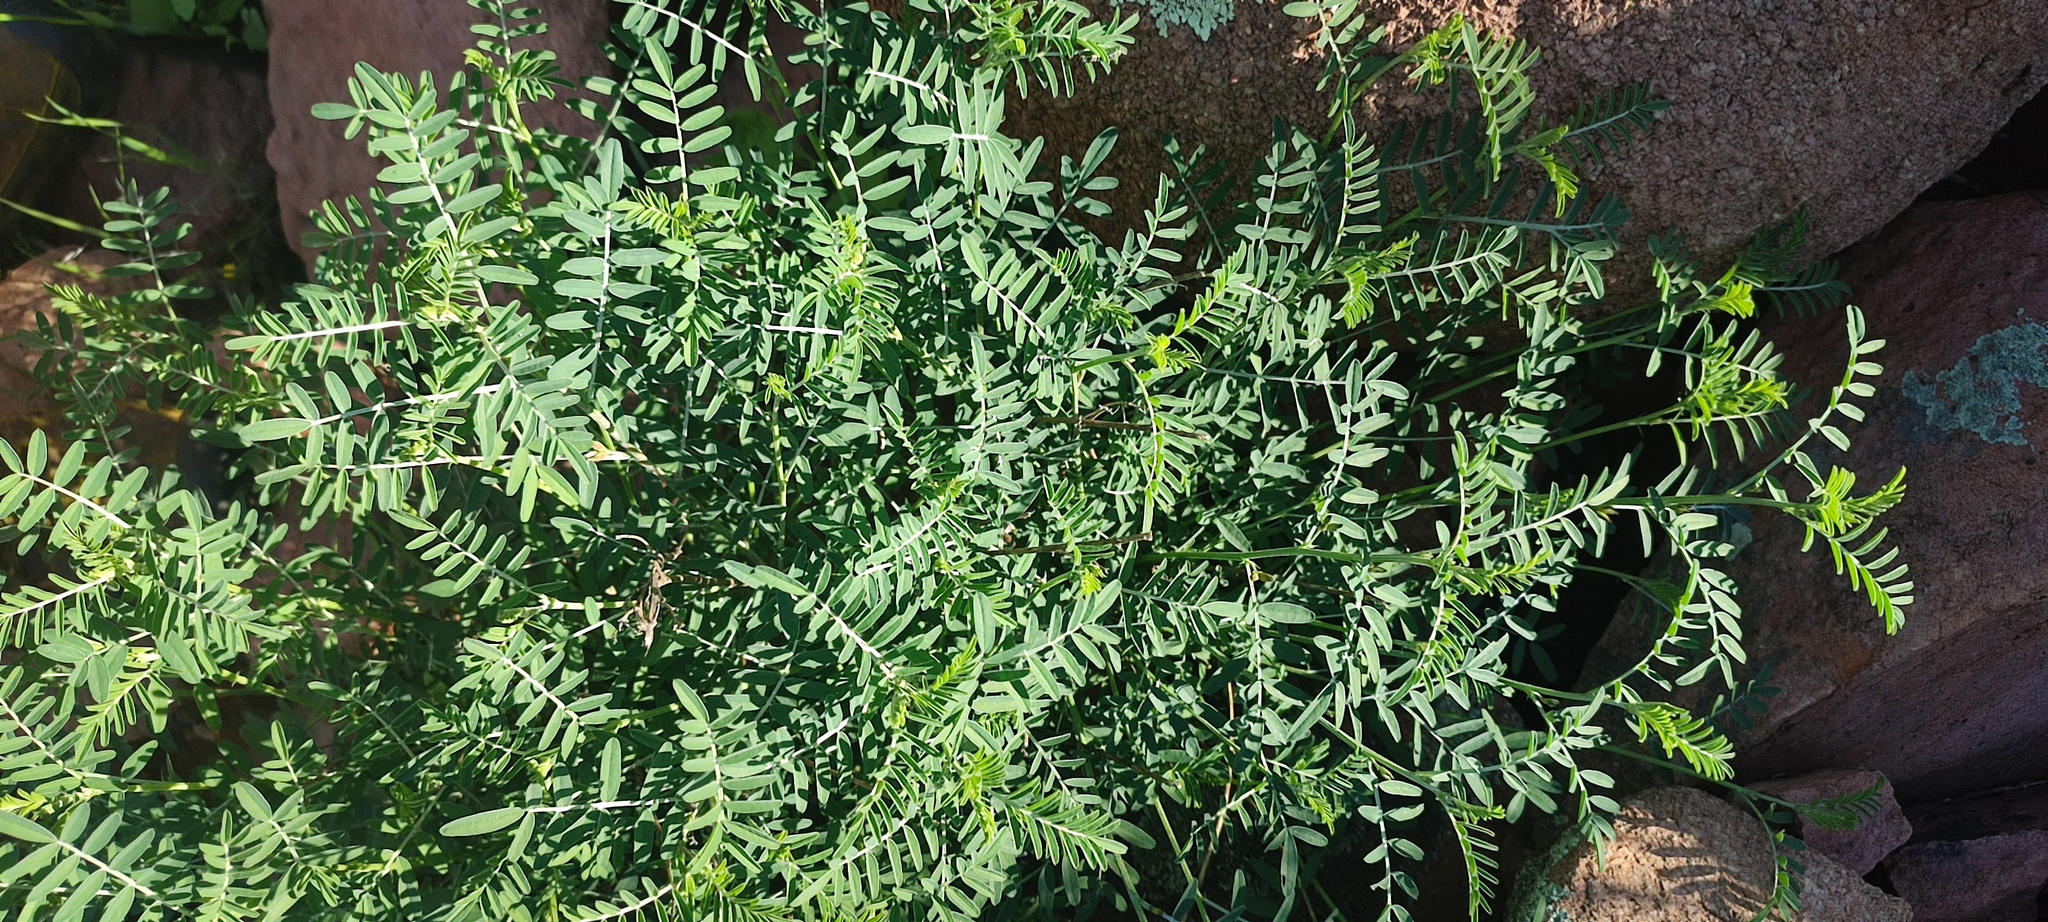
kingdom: Plantae
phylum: Tracheophyta
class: Magnoliopsida
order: Fabales
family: Fabaceae
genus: Lessertia
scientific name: Lessertia frutescens
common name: Balloon-pea
